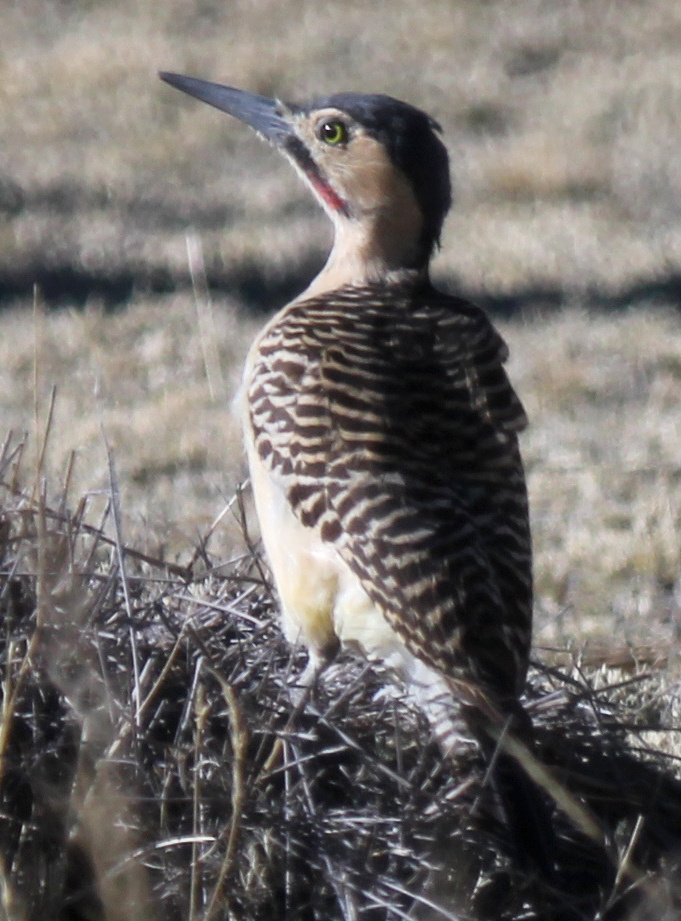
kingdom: Animalia
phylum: Chordata
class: Aves
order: Piciformes
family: Picidae
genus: Colaptes
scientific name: Colaptes rupicola
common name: Andean flicker
